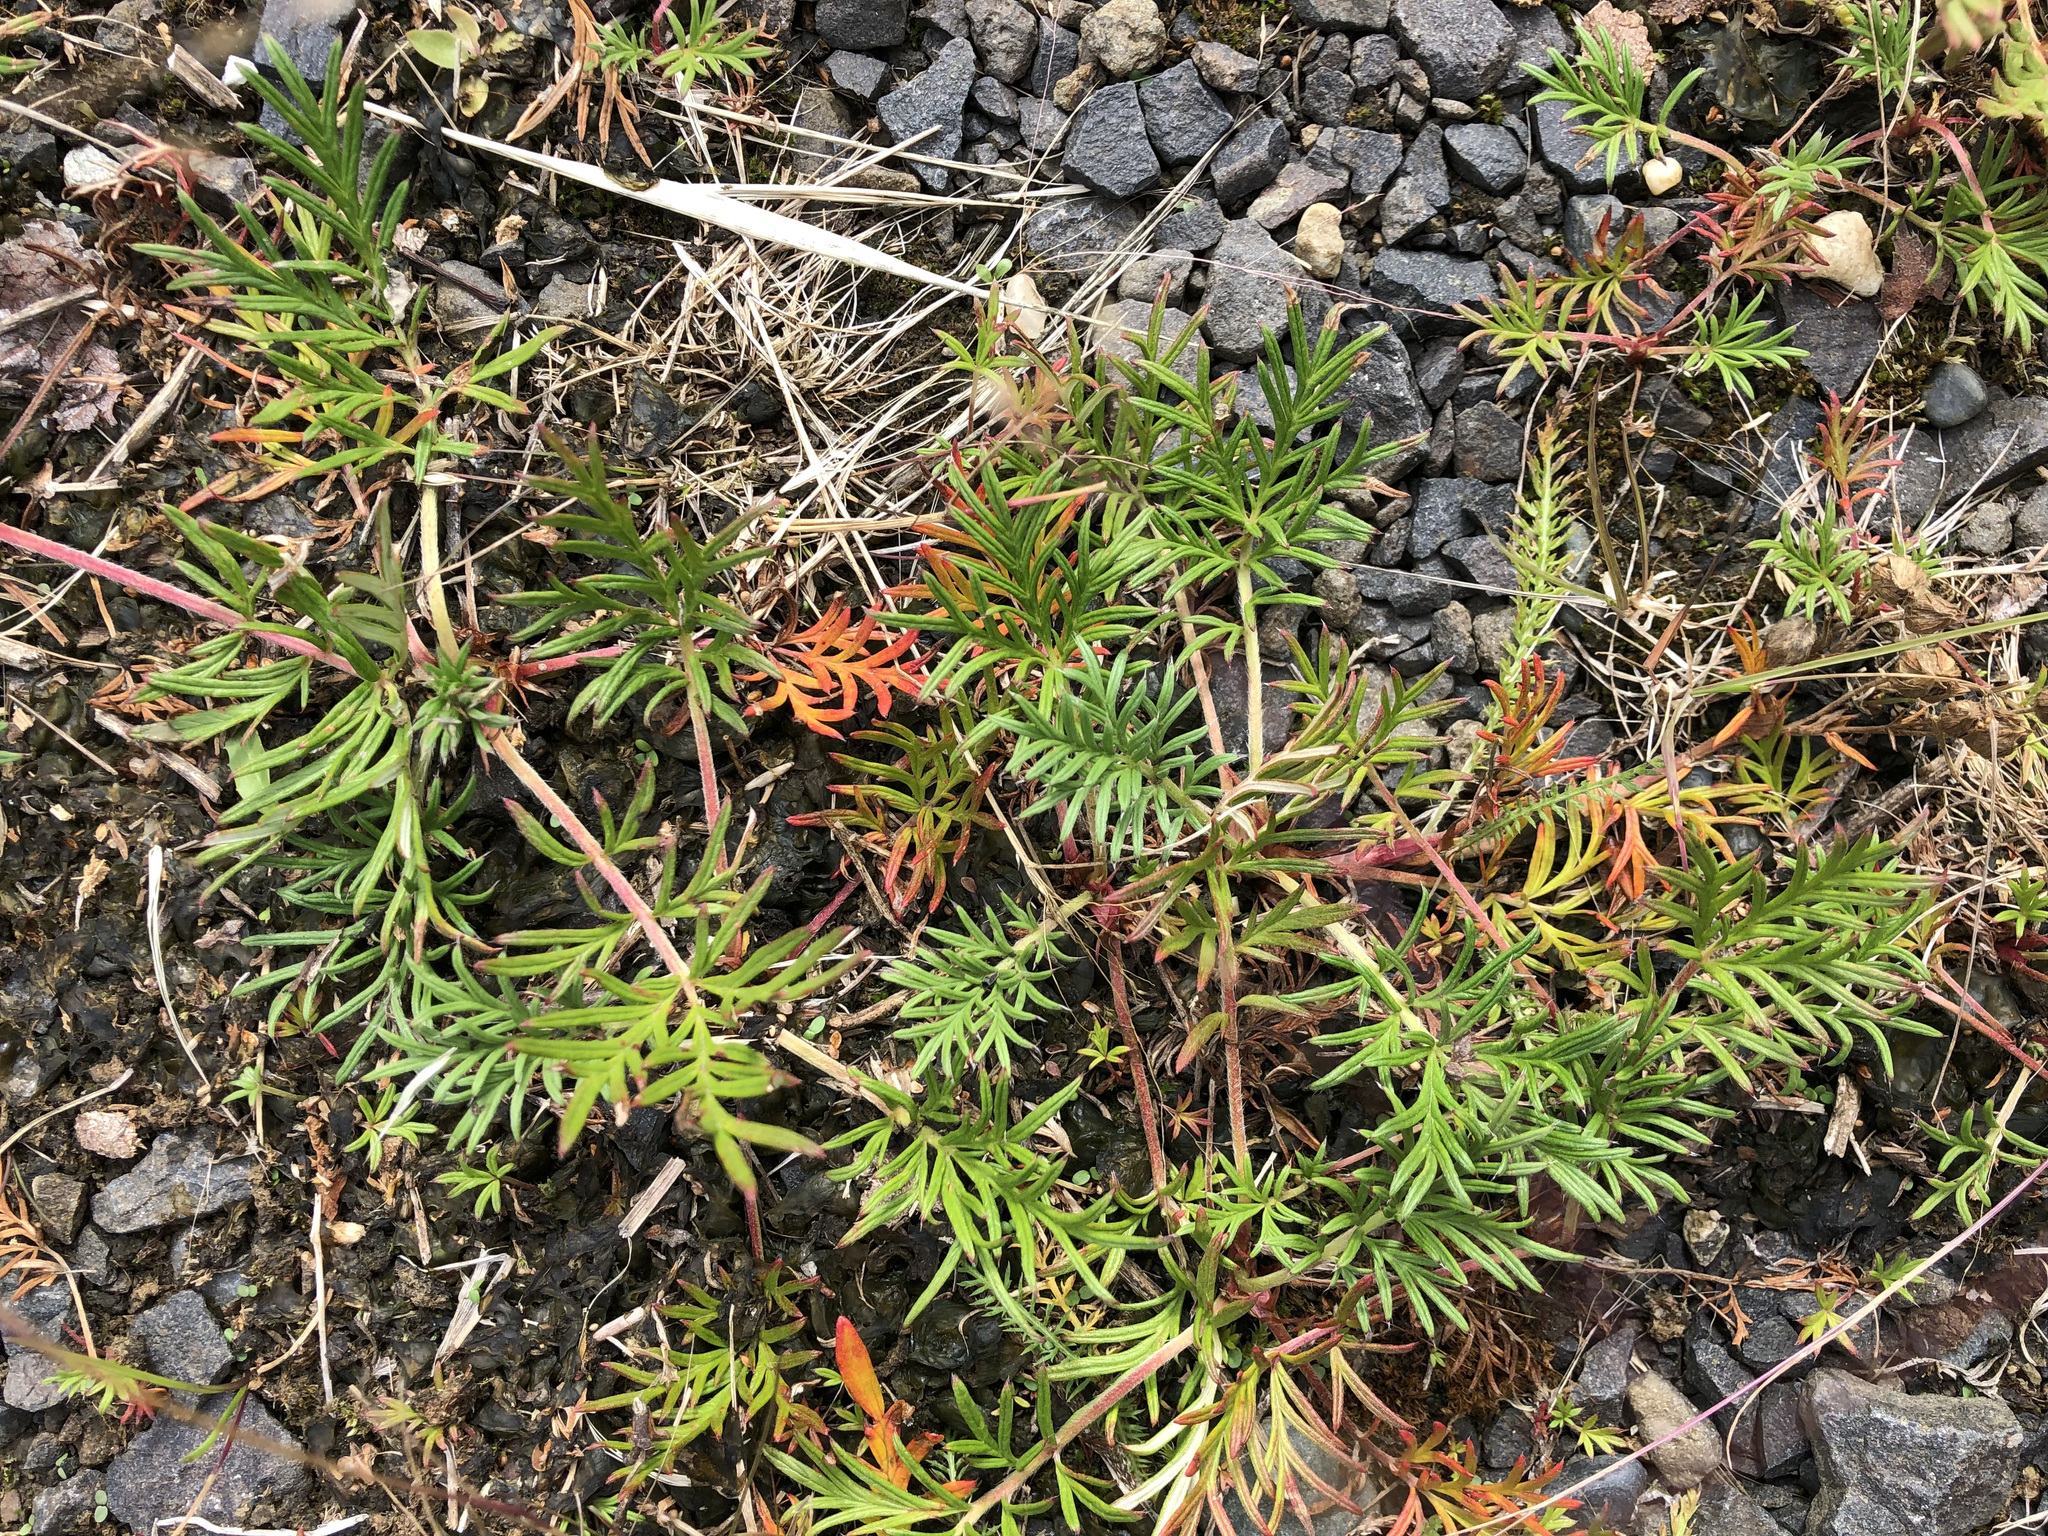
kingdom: Plantae
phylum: Tracheophyta
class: Magnoliopsida
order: Rosales
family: Rosaceae
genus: Potentilla
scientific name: Potentilla bimundorum
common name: Cut-leaved cinquefoil
